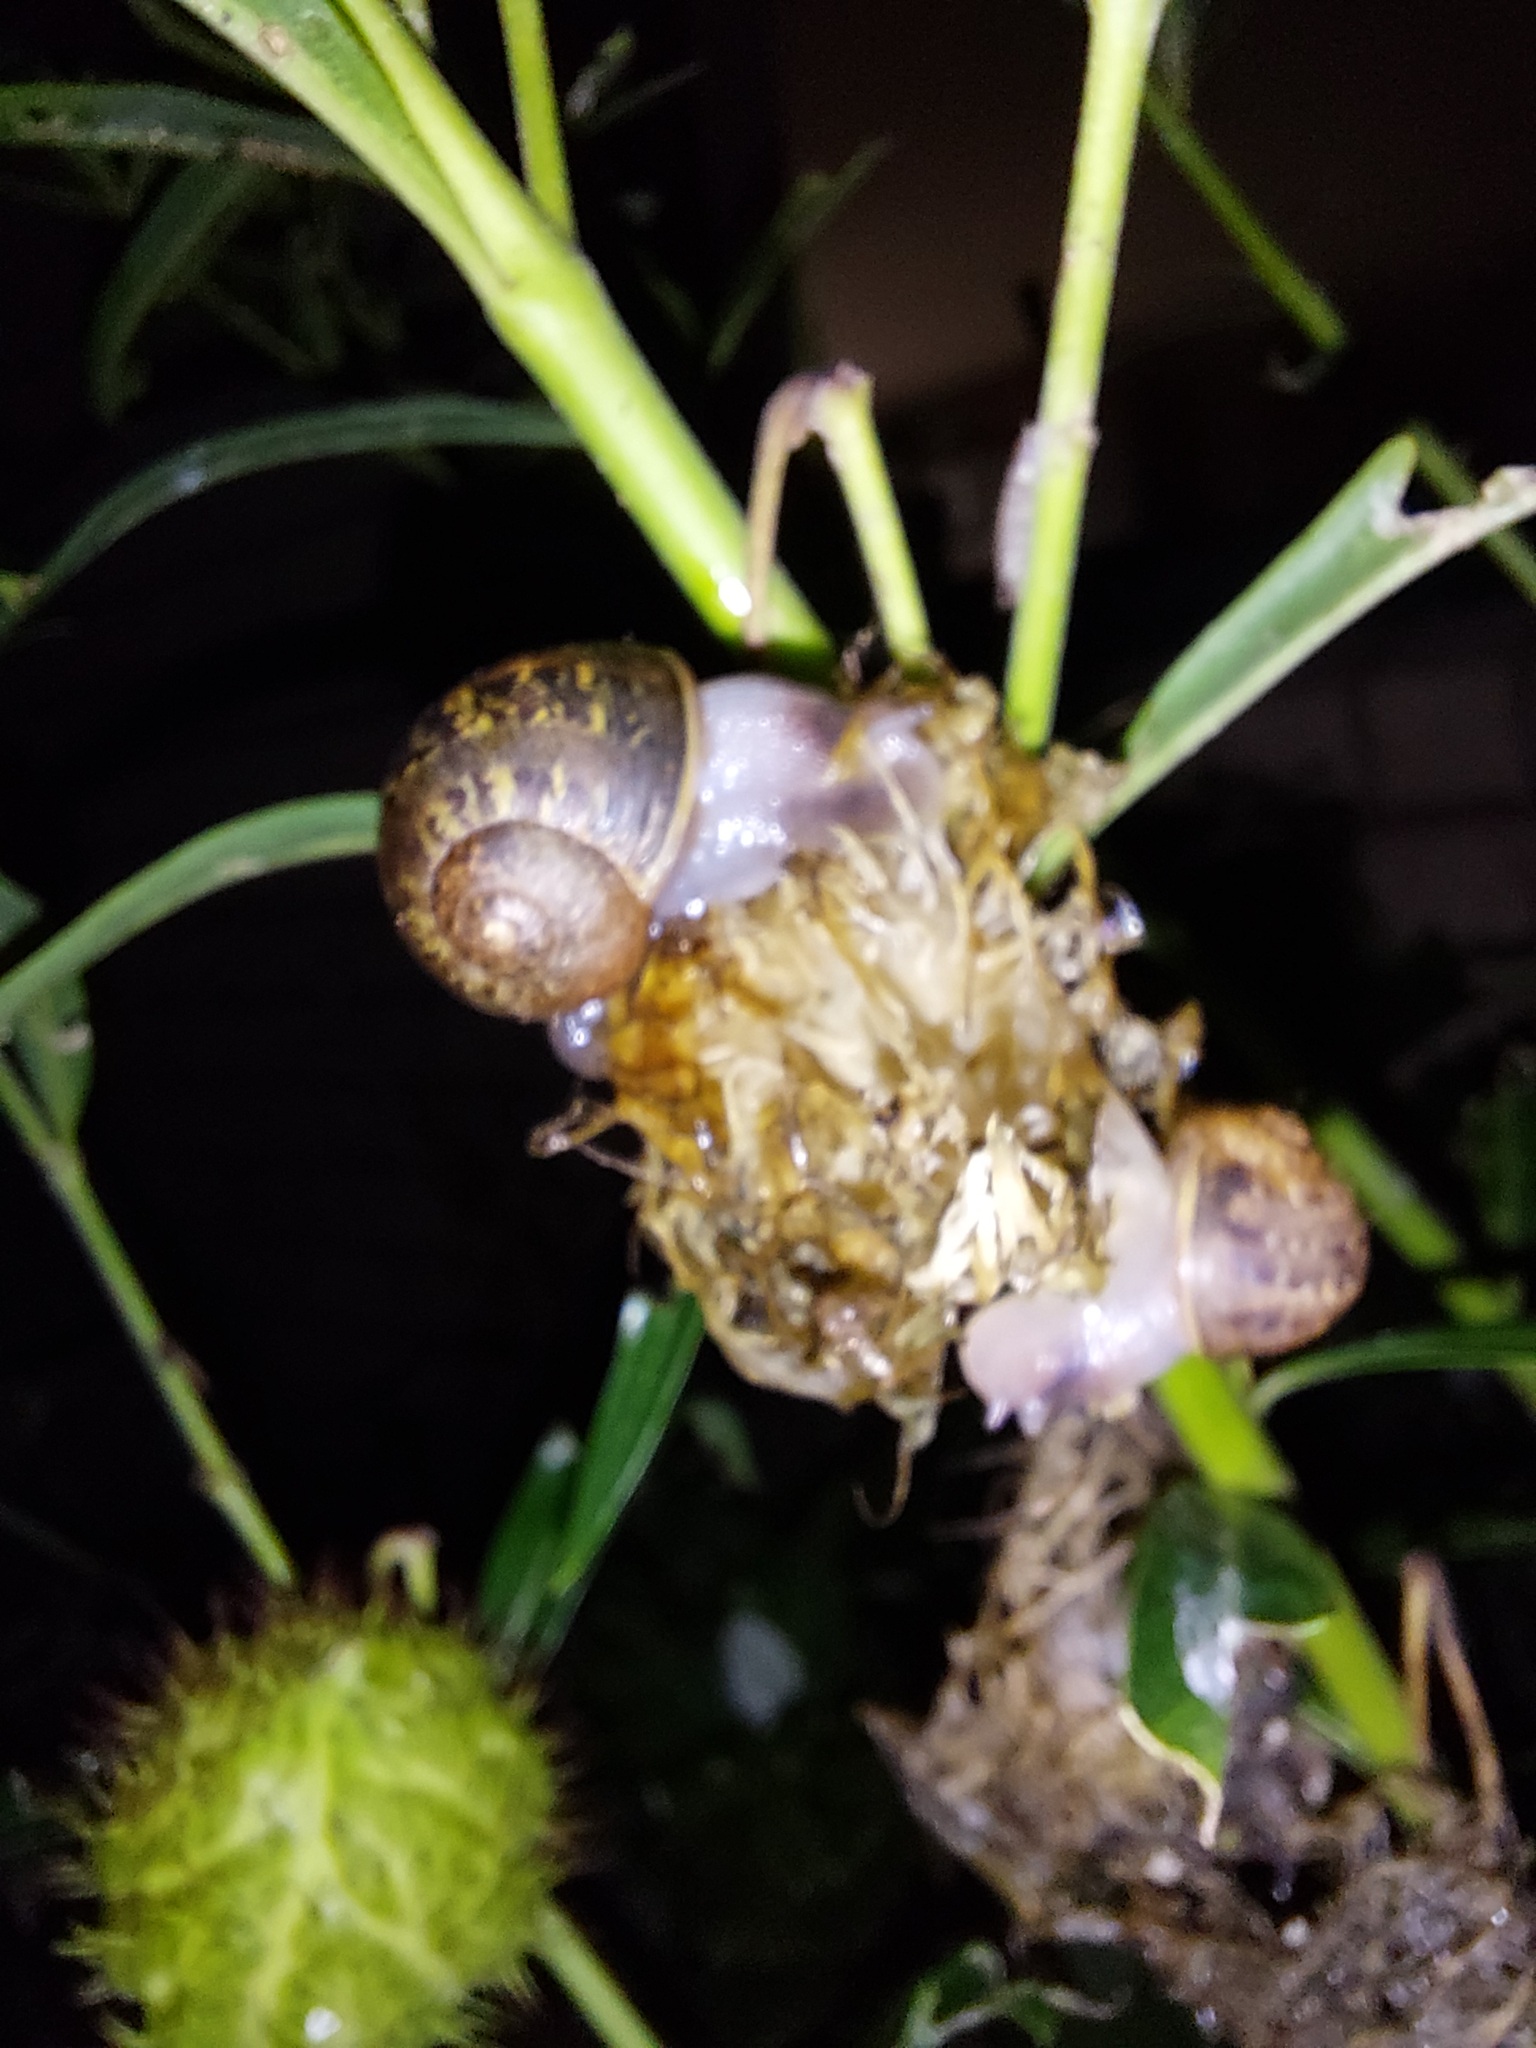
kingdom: Animalia
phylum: Mollusca
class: Gastropoda
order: Stylommatophora
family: Helicidae
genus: Cornu
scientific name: Cornu aspersum
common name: Brown garden snail
